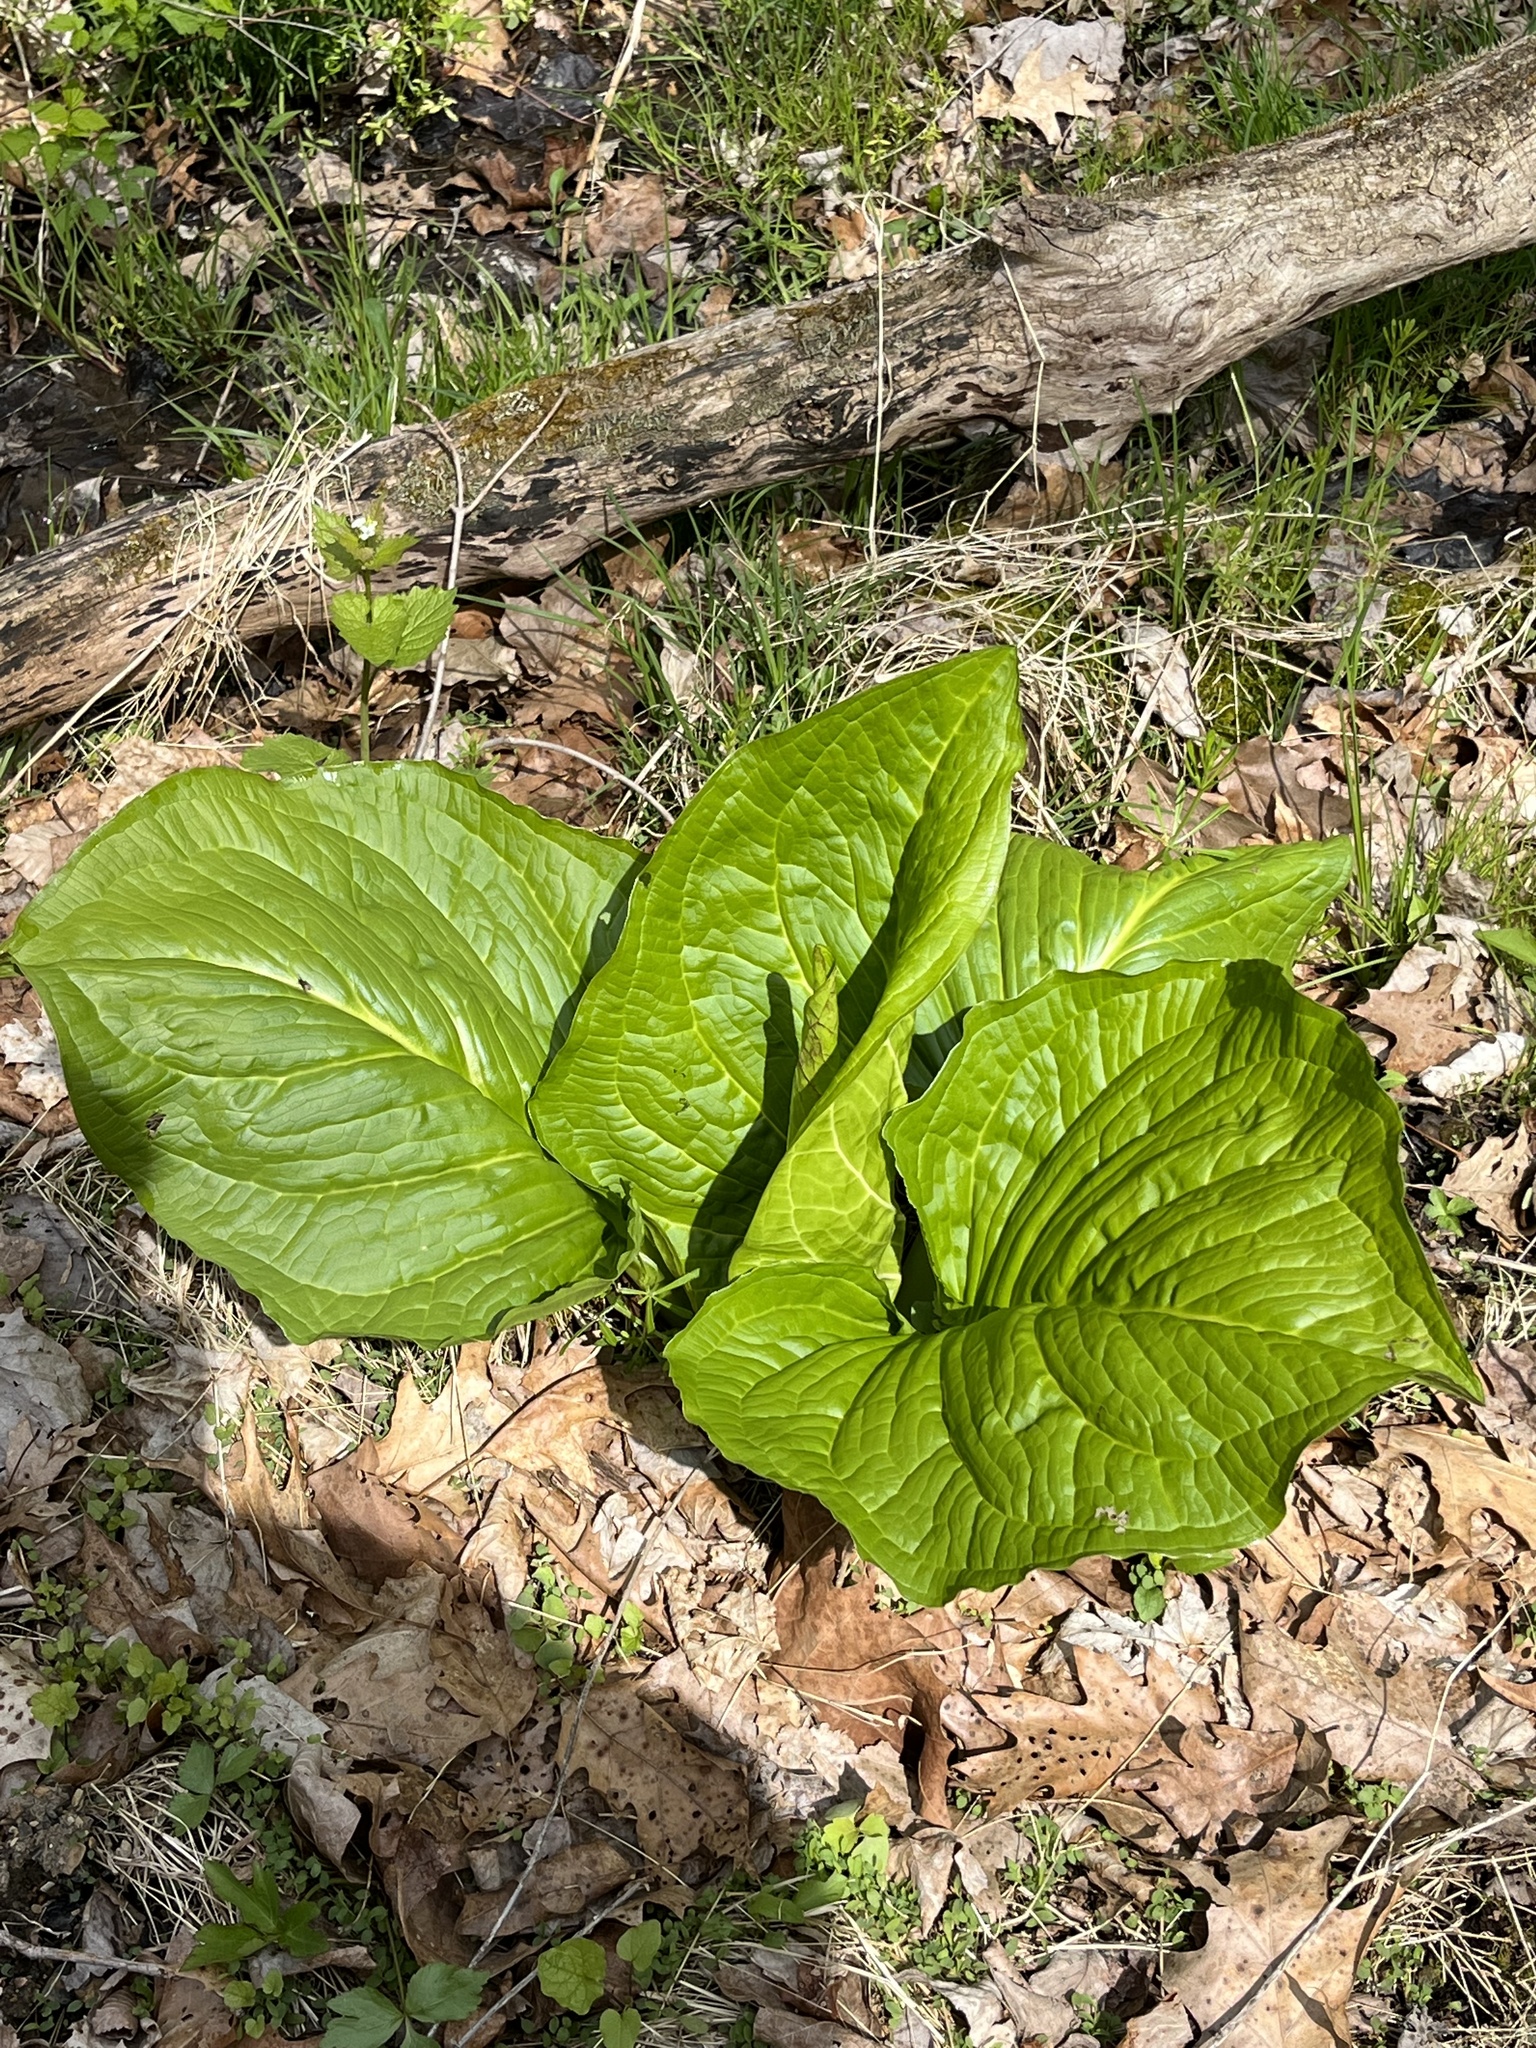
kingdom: Plantae
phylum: Tracheophyta
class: Liliopsida
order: Alismatales
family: Araceae
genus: Symplocarpus
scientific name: Symplocarpus foetidus
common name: Eastern skunk cabbage
